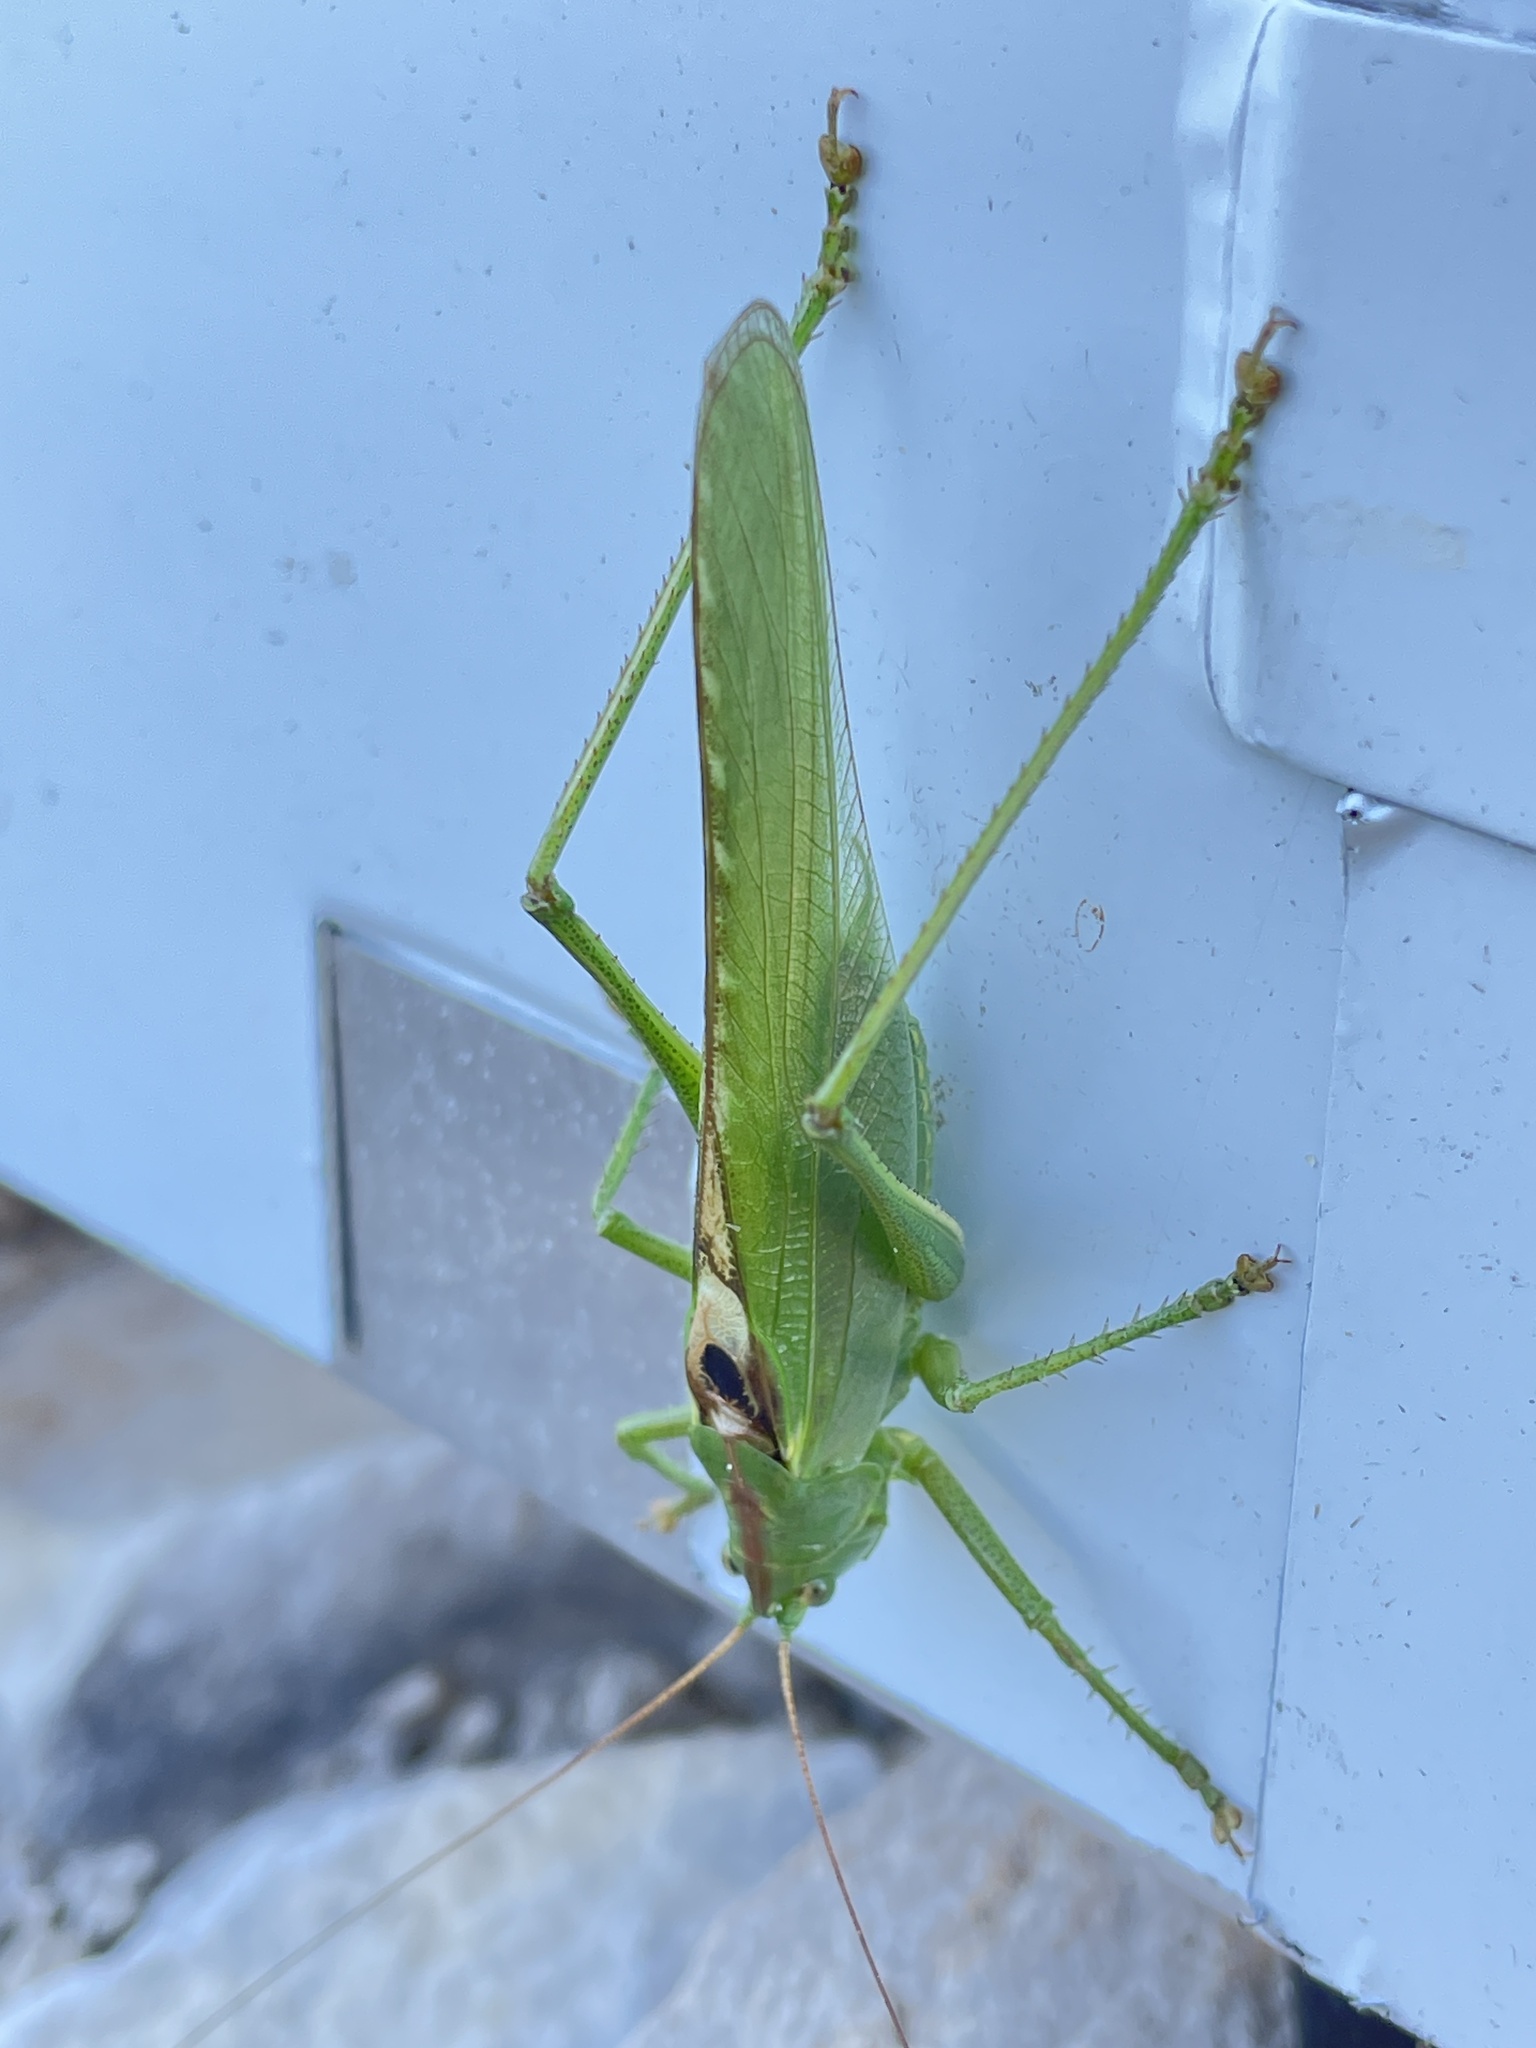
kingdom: Animalia
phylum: Arthropoda
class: Insecta
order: Orthoptera
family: Tettigoniidae
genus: Tettigonia
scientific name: Tettigonia viridissima
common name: Great green bush-cricket
